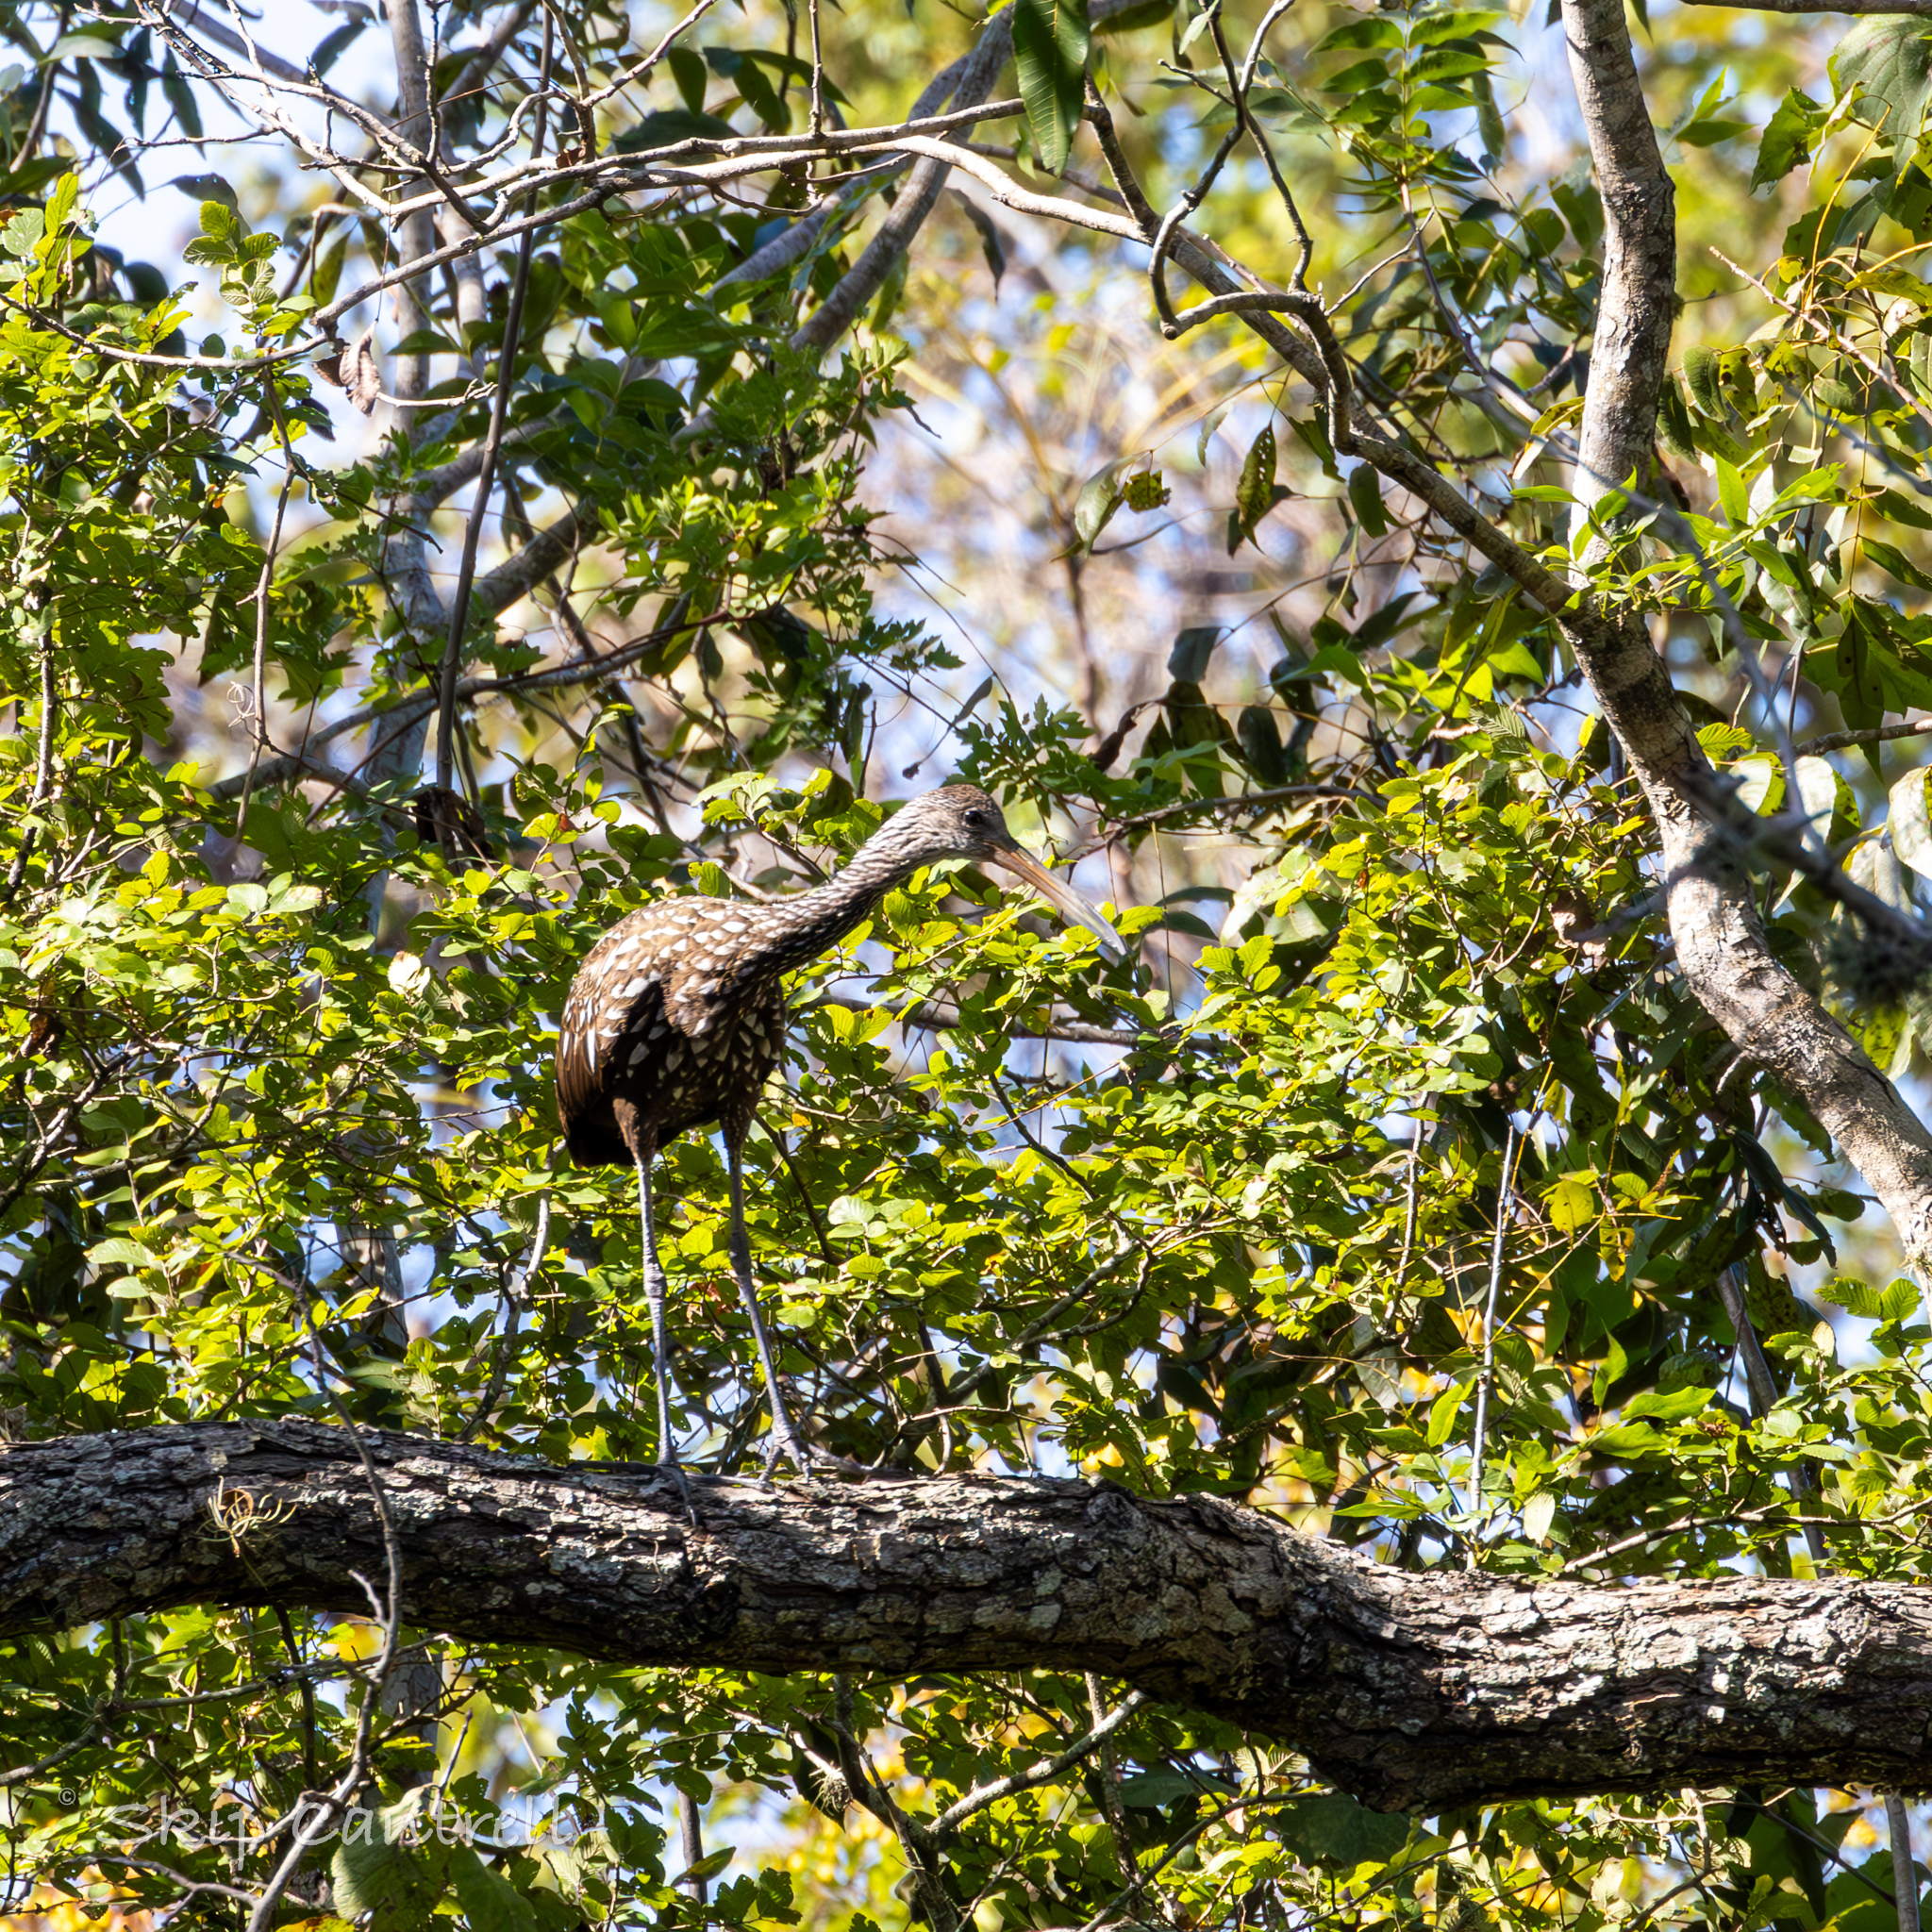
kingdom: Animalia
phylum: Chordata
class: Aves
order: Gruiformes
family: Aramidae
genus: Aramus
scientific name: Aramus guarauna
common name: Limpkin
